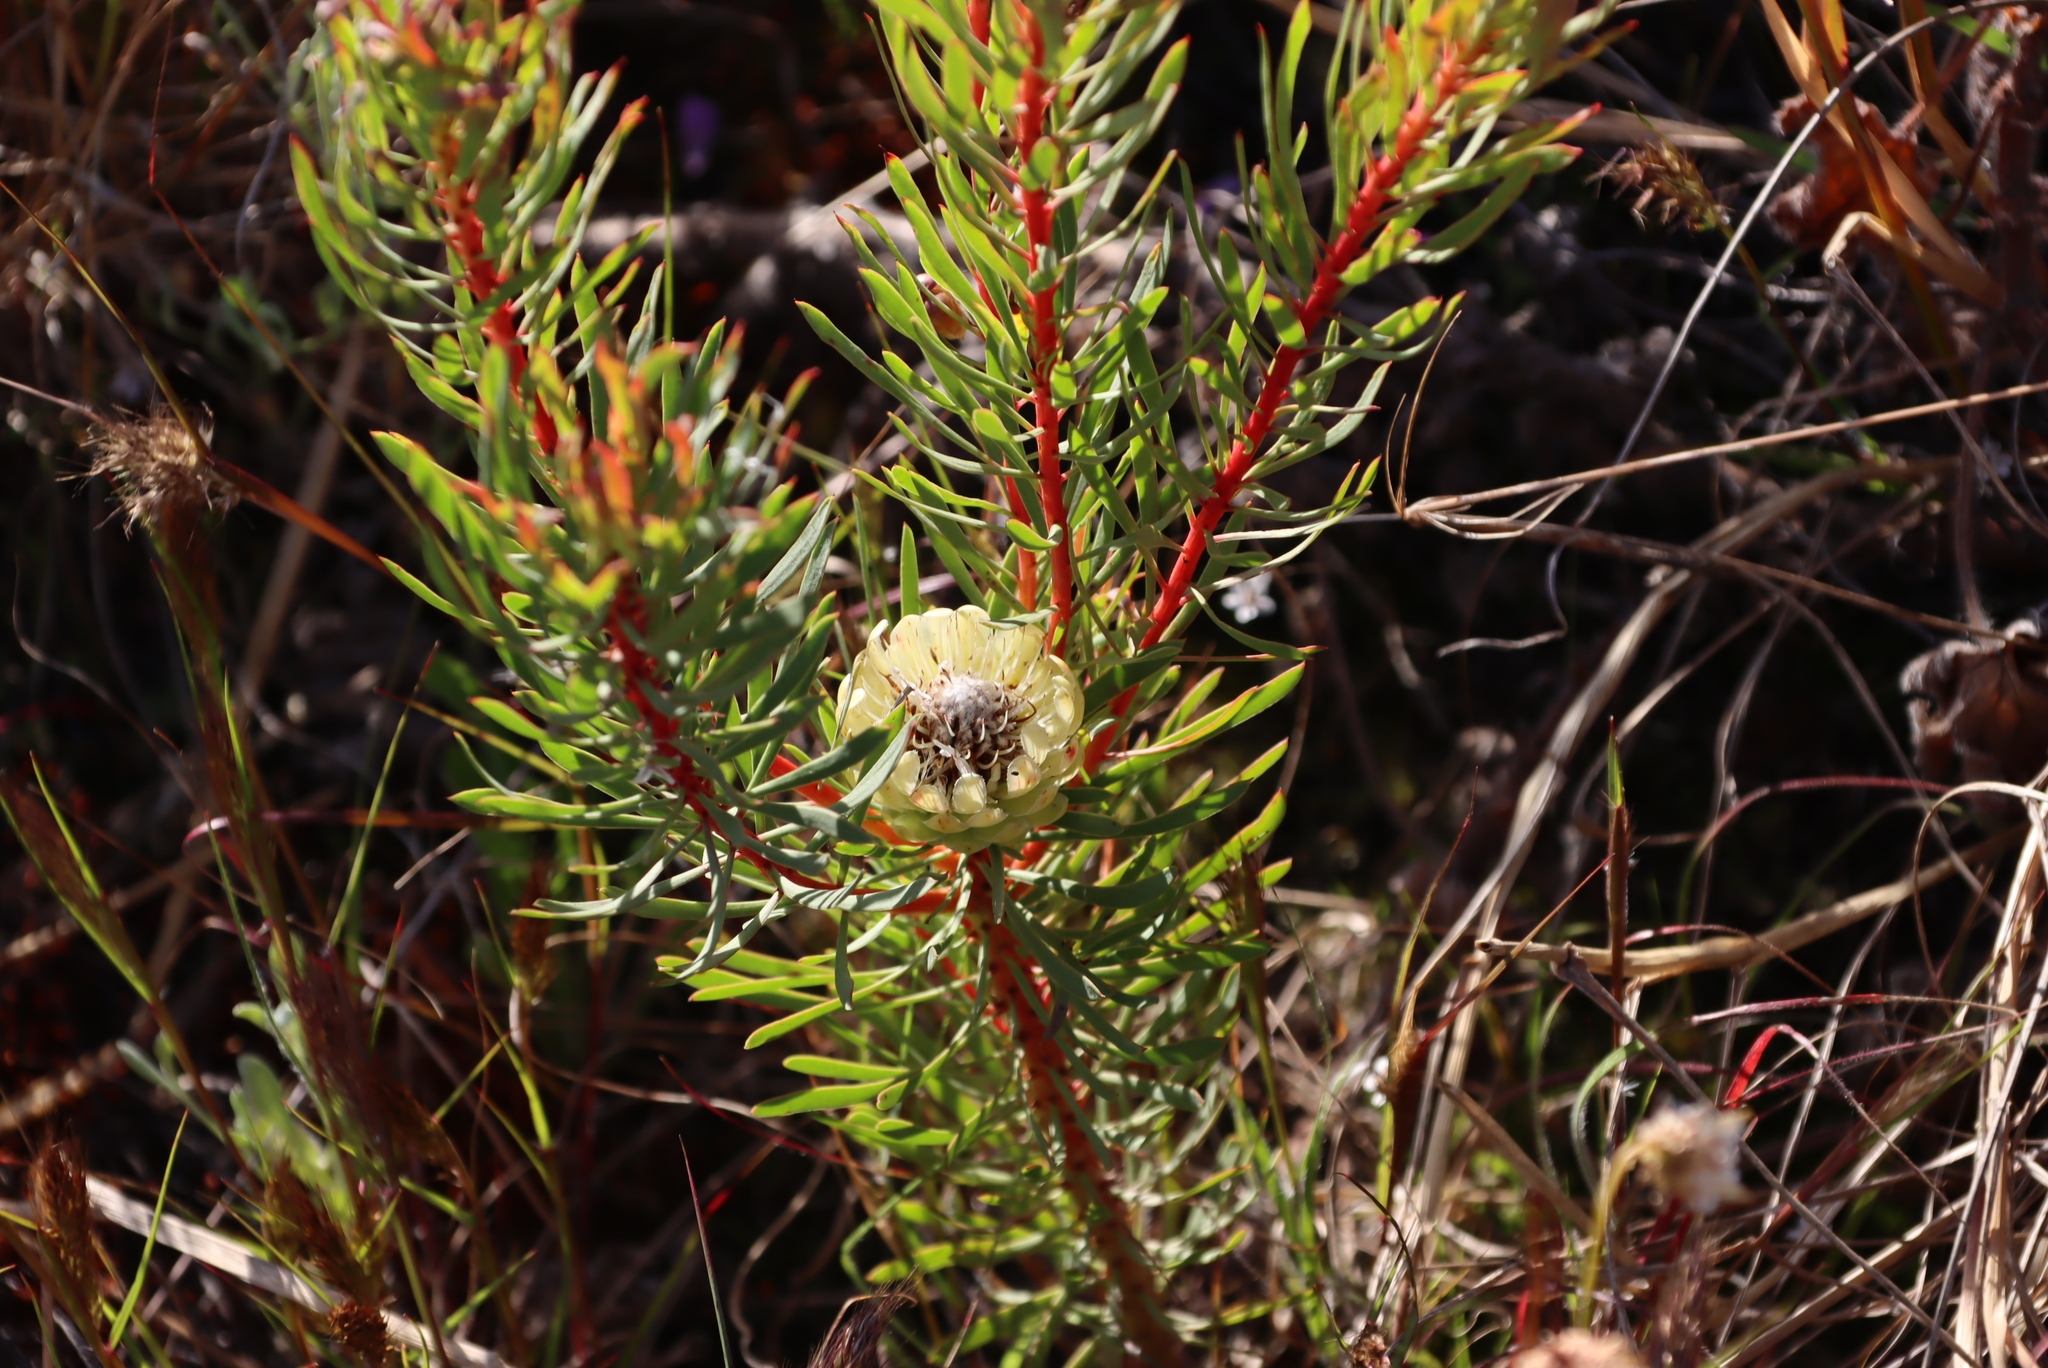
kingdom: Plantae
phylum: Tracheophyta
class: Magnoliopsida
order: Proteales
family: Proteaceae
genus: Protea
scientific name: Protea scolymocephala
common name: Thistle sugarbush
